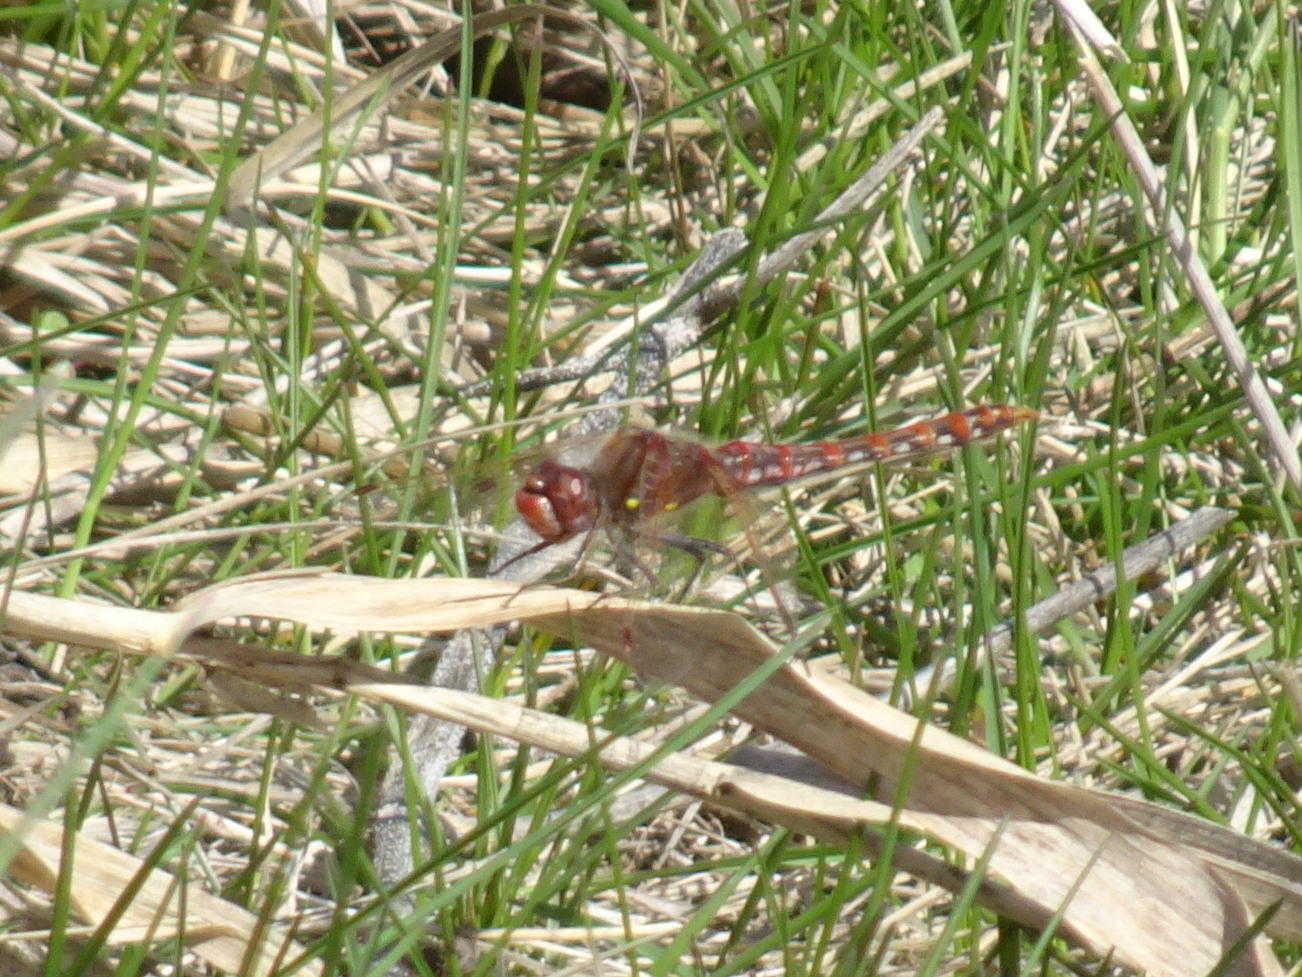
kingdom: Animalia
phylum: Arthropoda
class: Insecta
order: Odonata
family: Libellulidae
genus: Sympetrum
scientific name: Sympetrum corruptum
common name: Variegated meadowhawk
